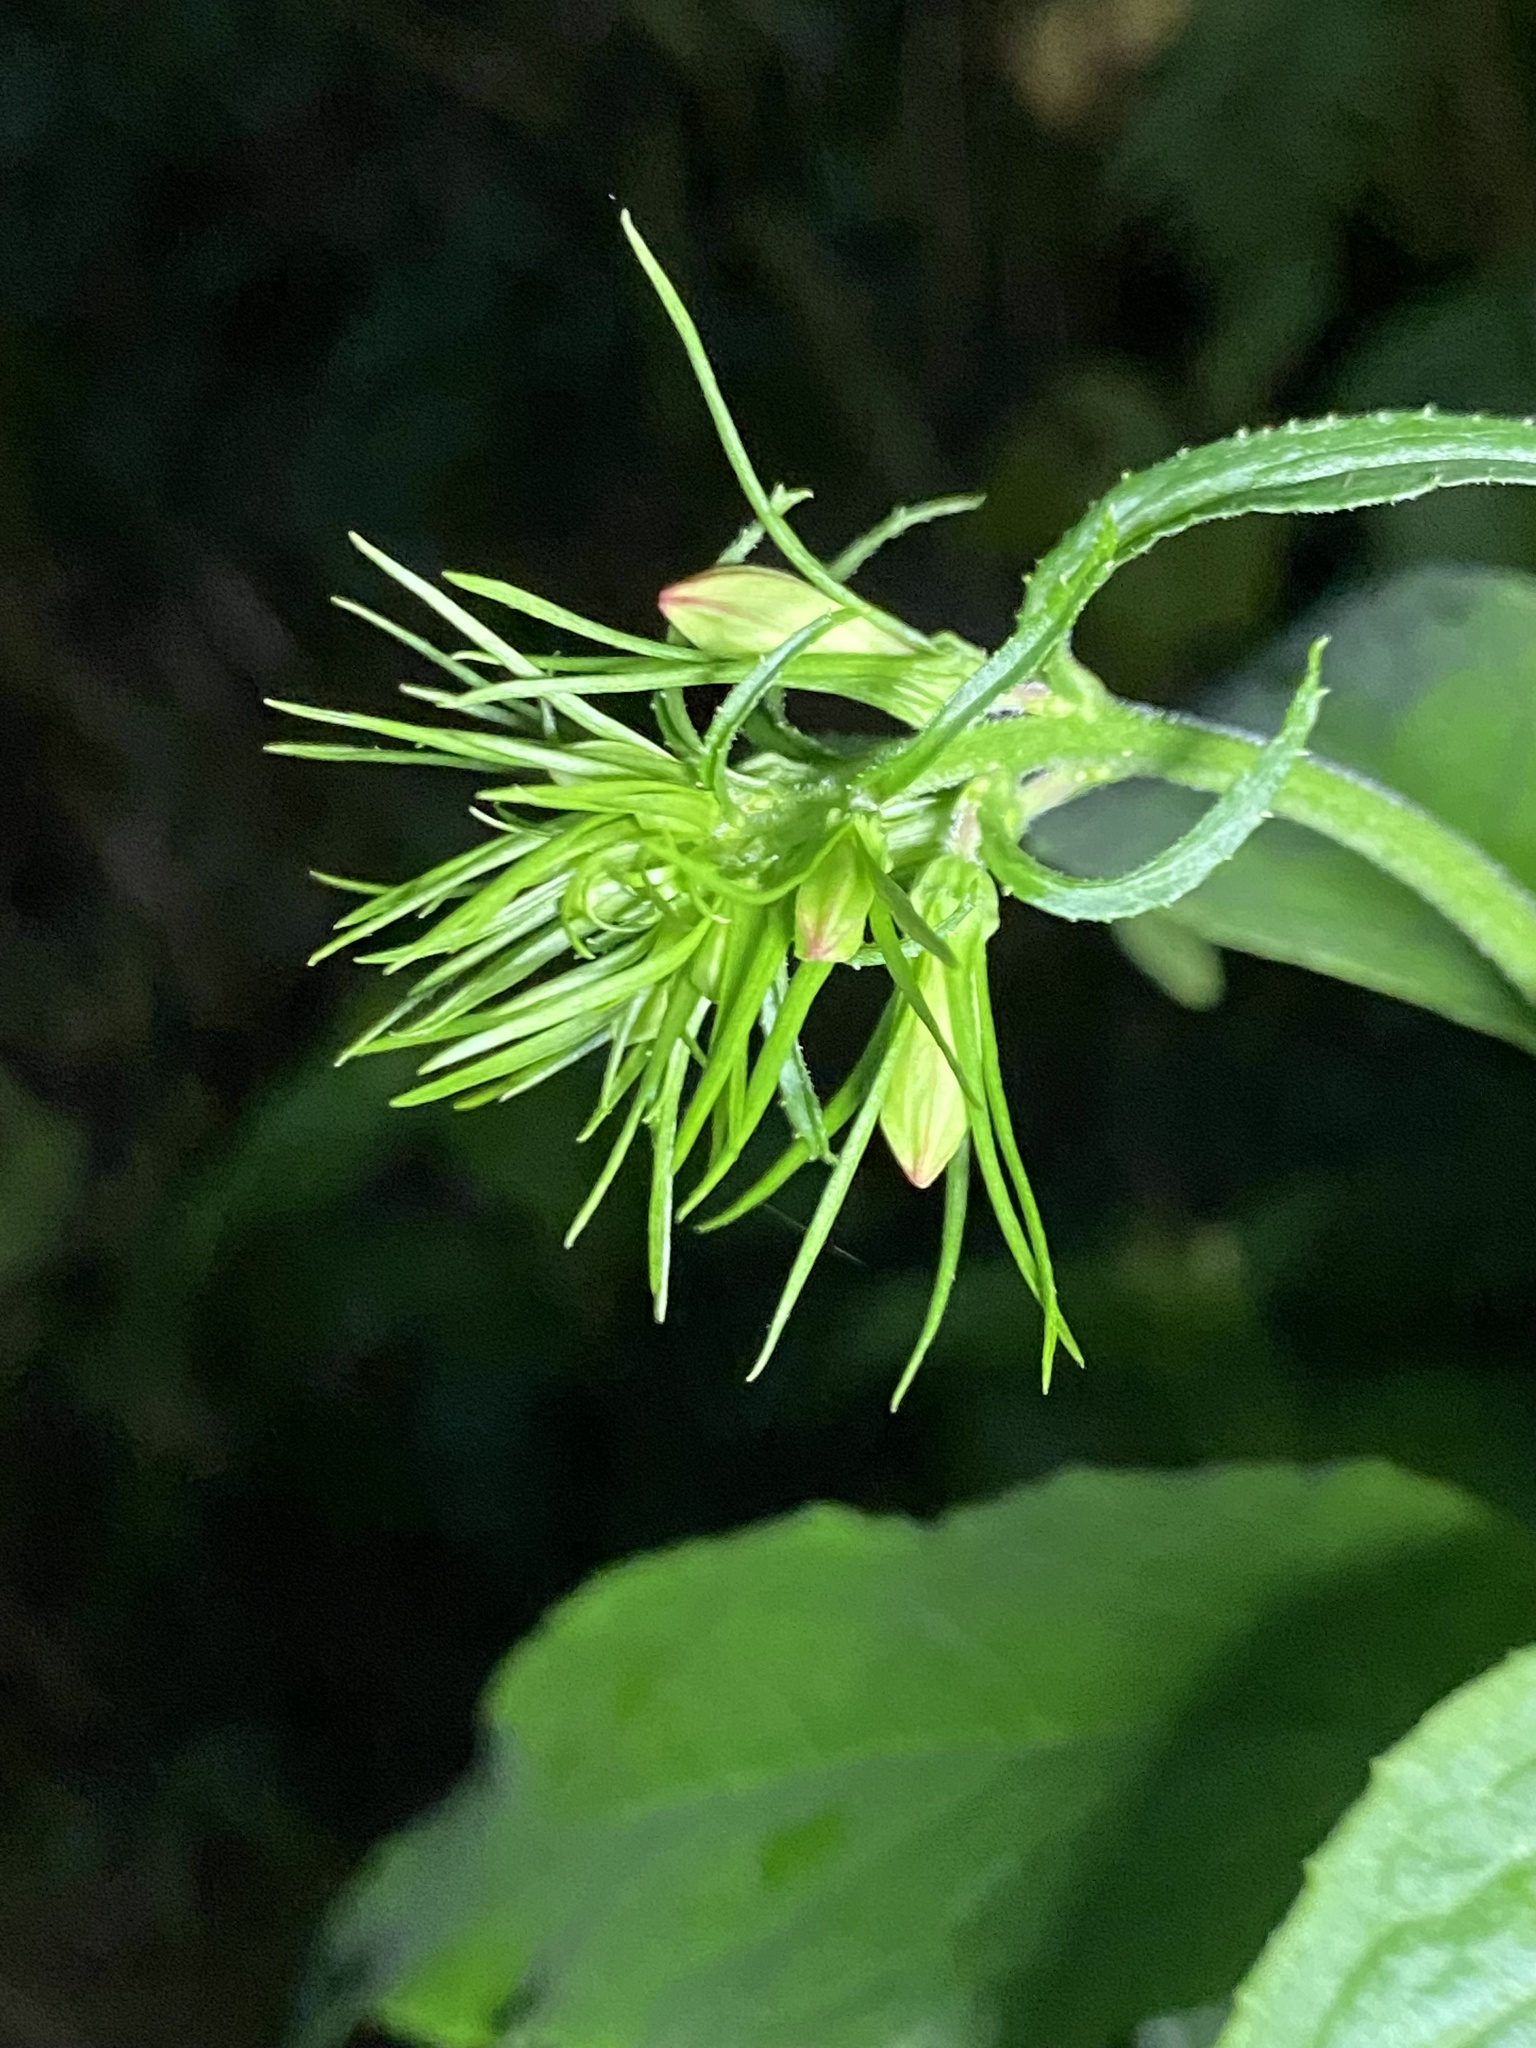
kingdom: Plantae
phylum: Tracheophyta
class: Magnoliopsida
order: Asterales
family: Campanulaceae
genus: Lobelia
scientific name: Lobelia cardinalis
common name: Cardinal flower
